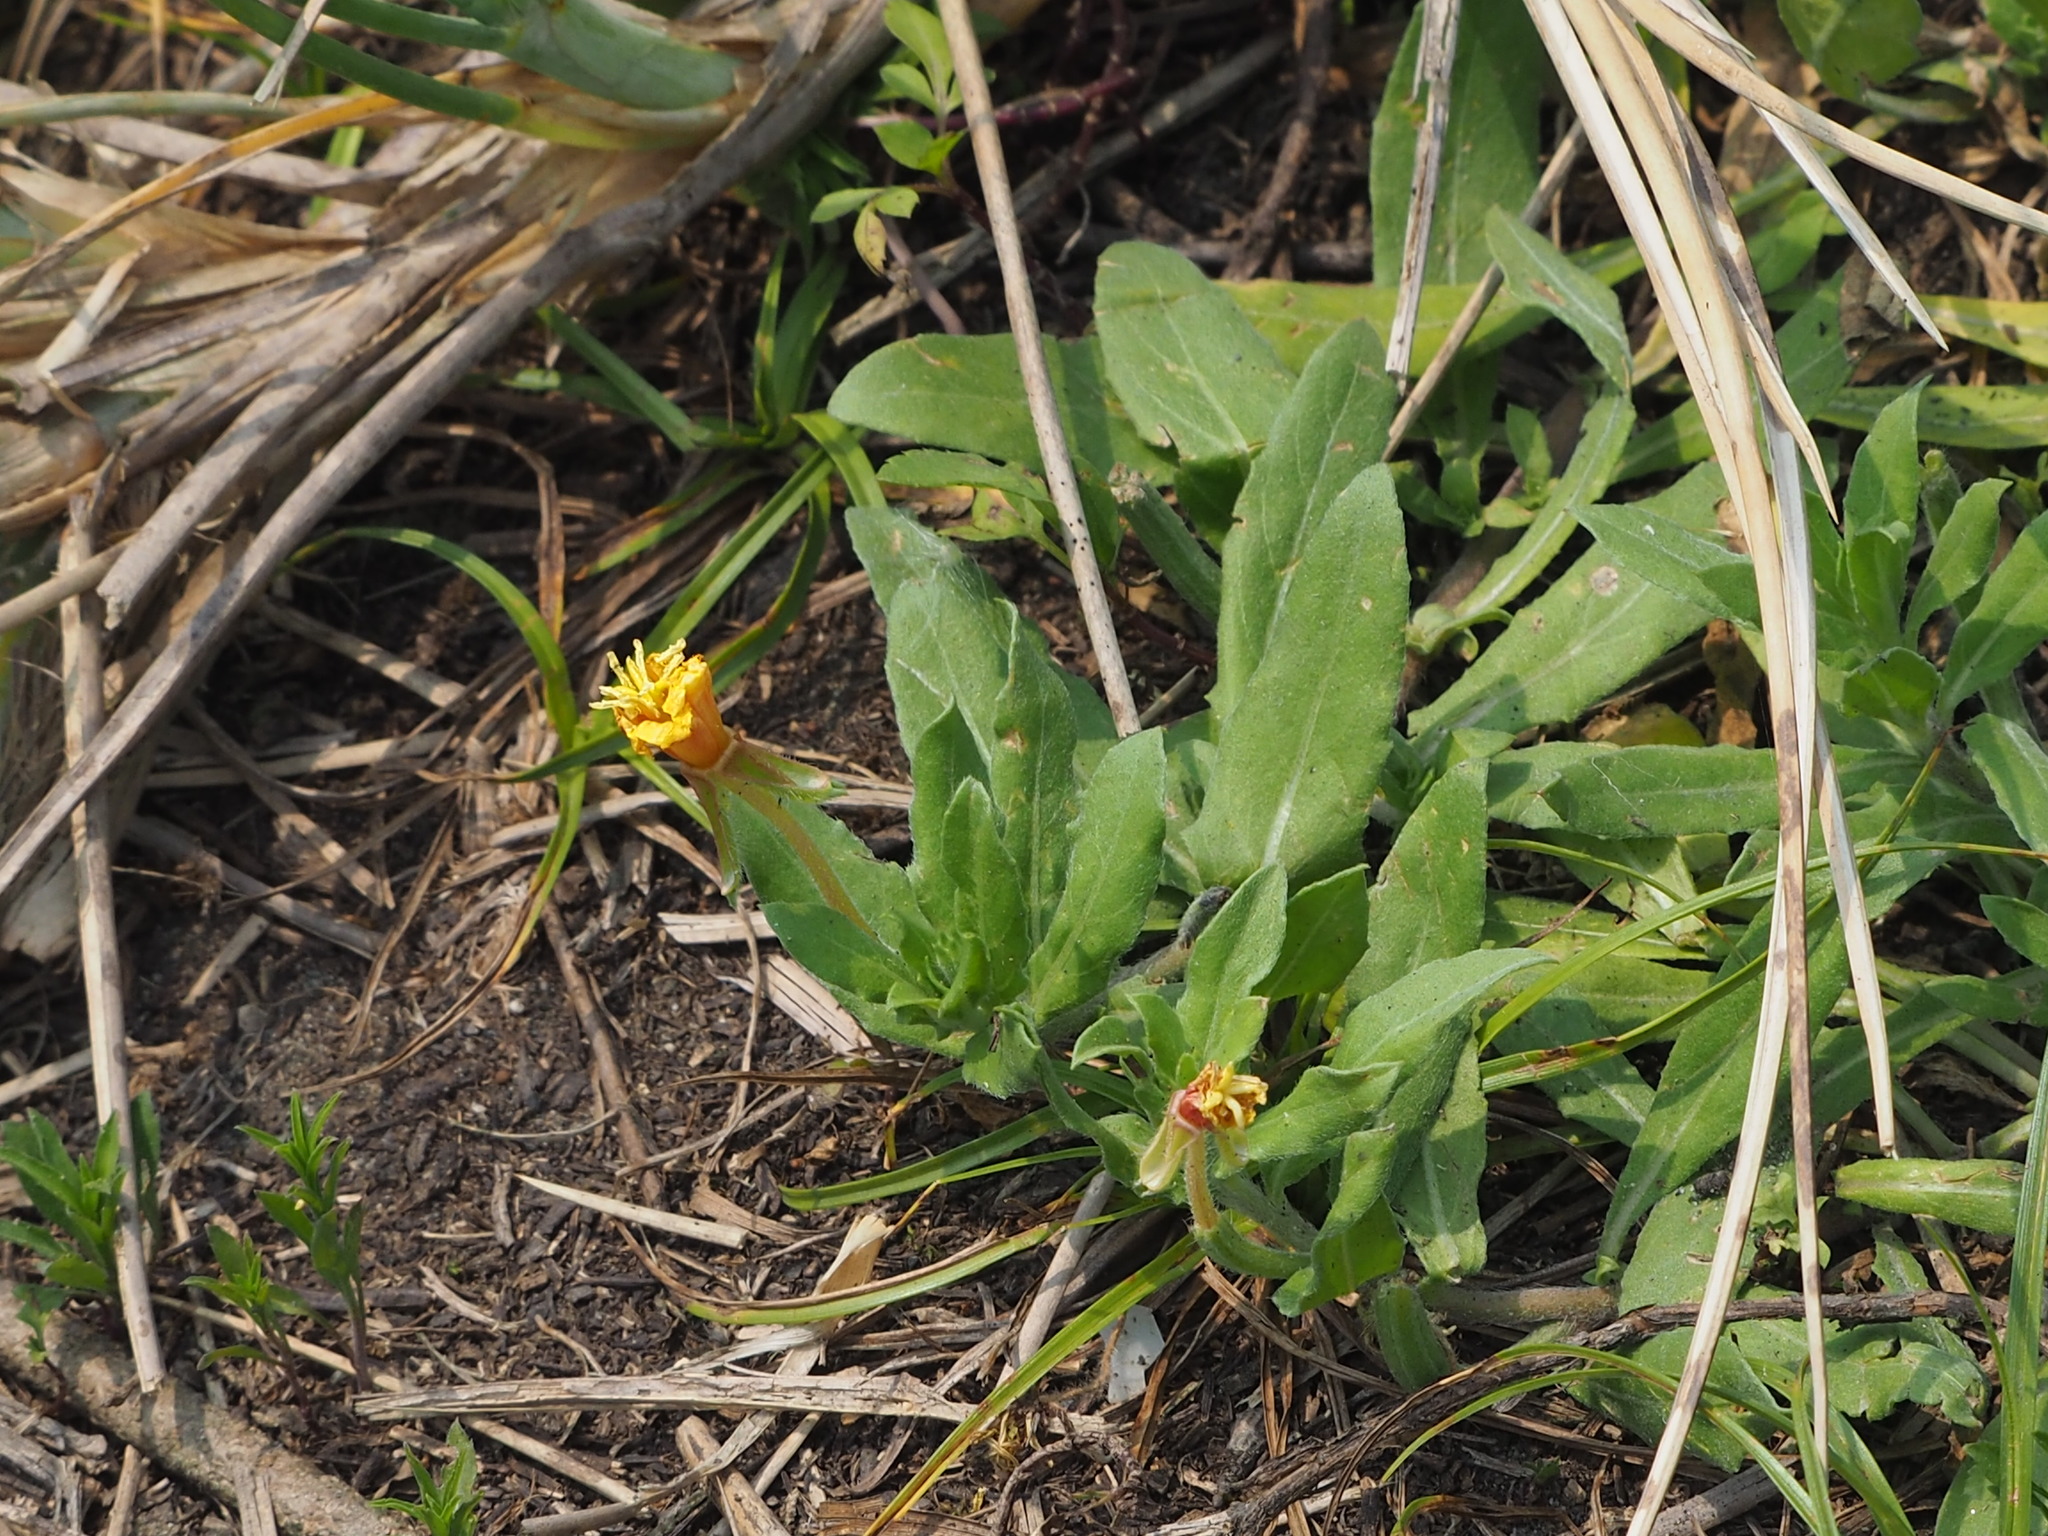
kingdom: Plantae
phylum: Tracheophyta
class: Magnoliopsida
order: Myrtales
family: Onagraceae
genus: Oenothera
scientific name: Oenothera laciniata
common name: Cut-leaved evening-primrose
